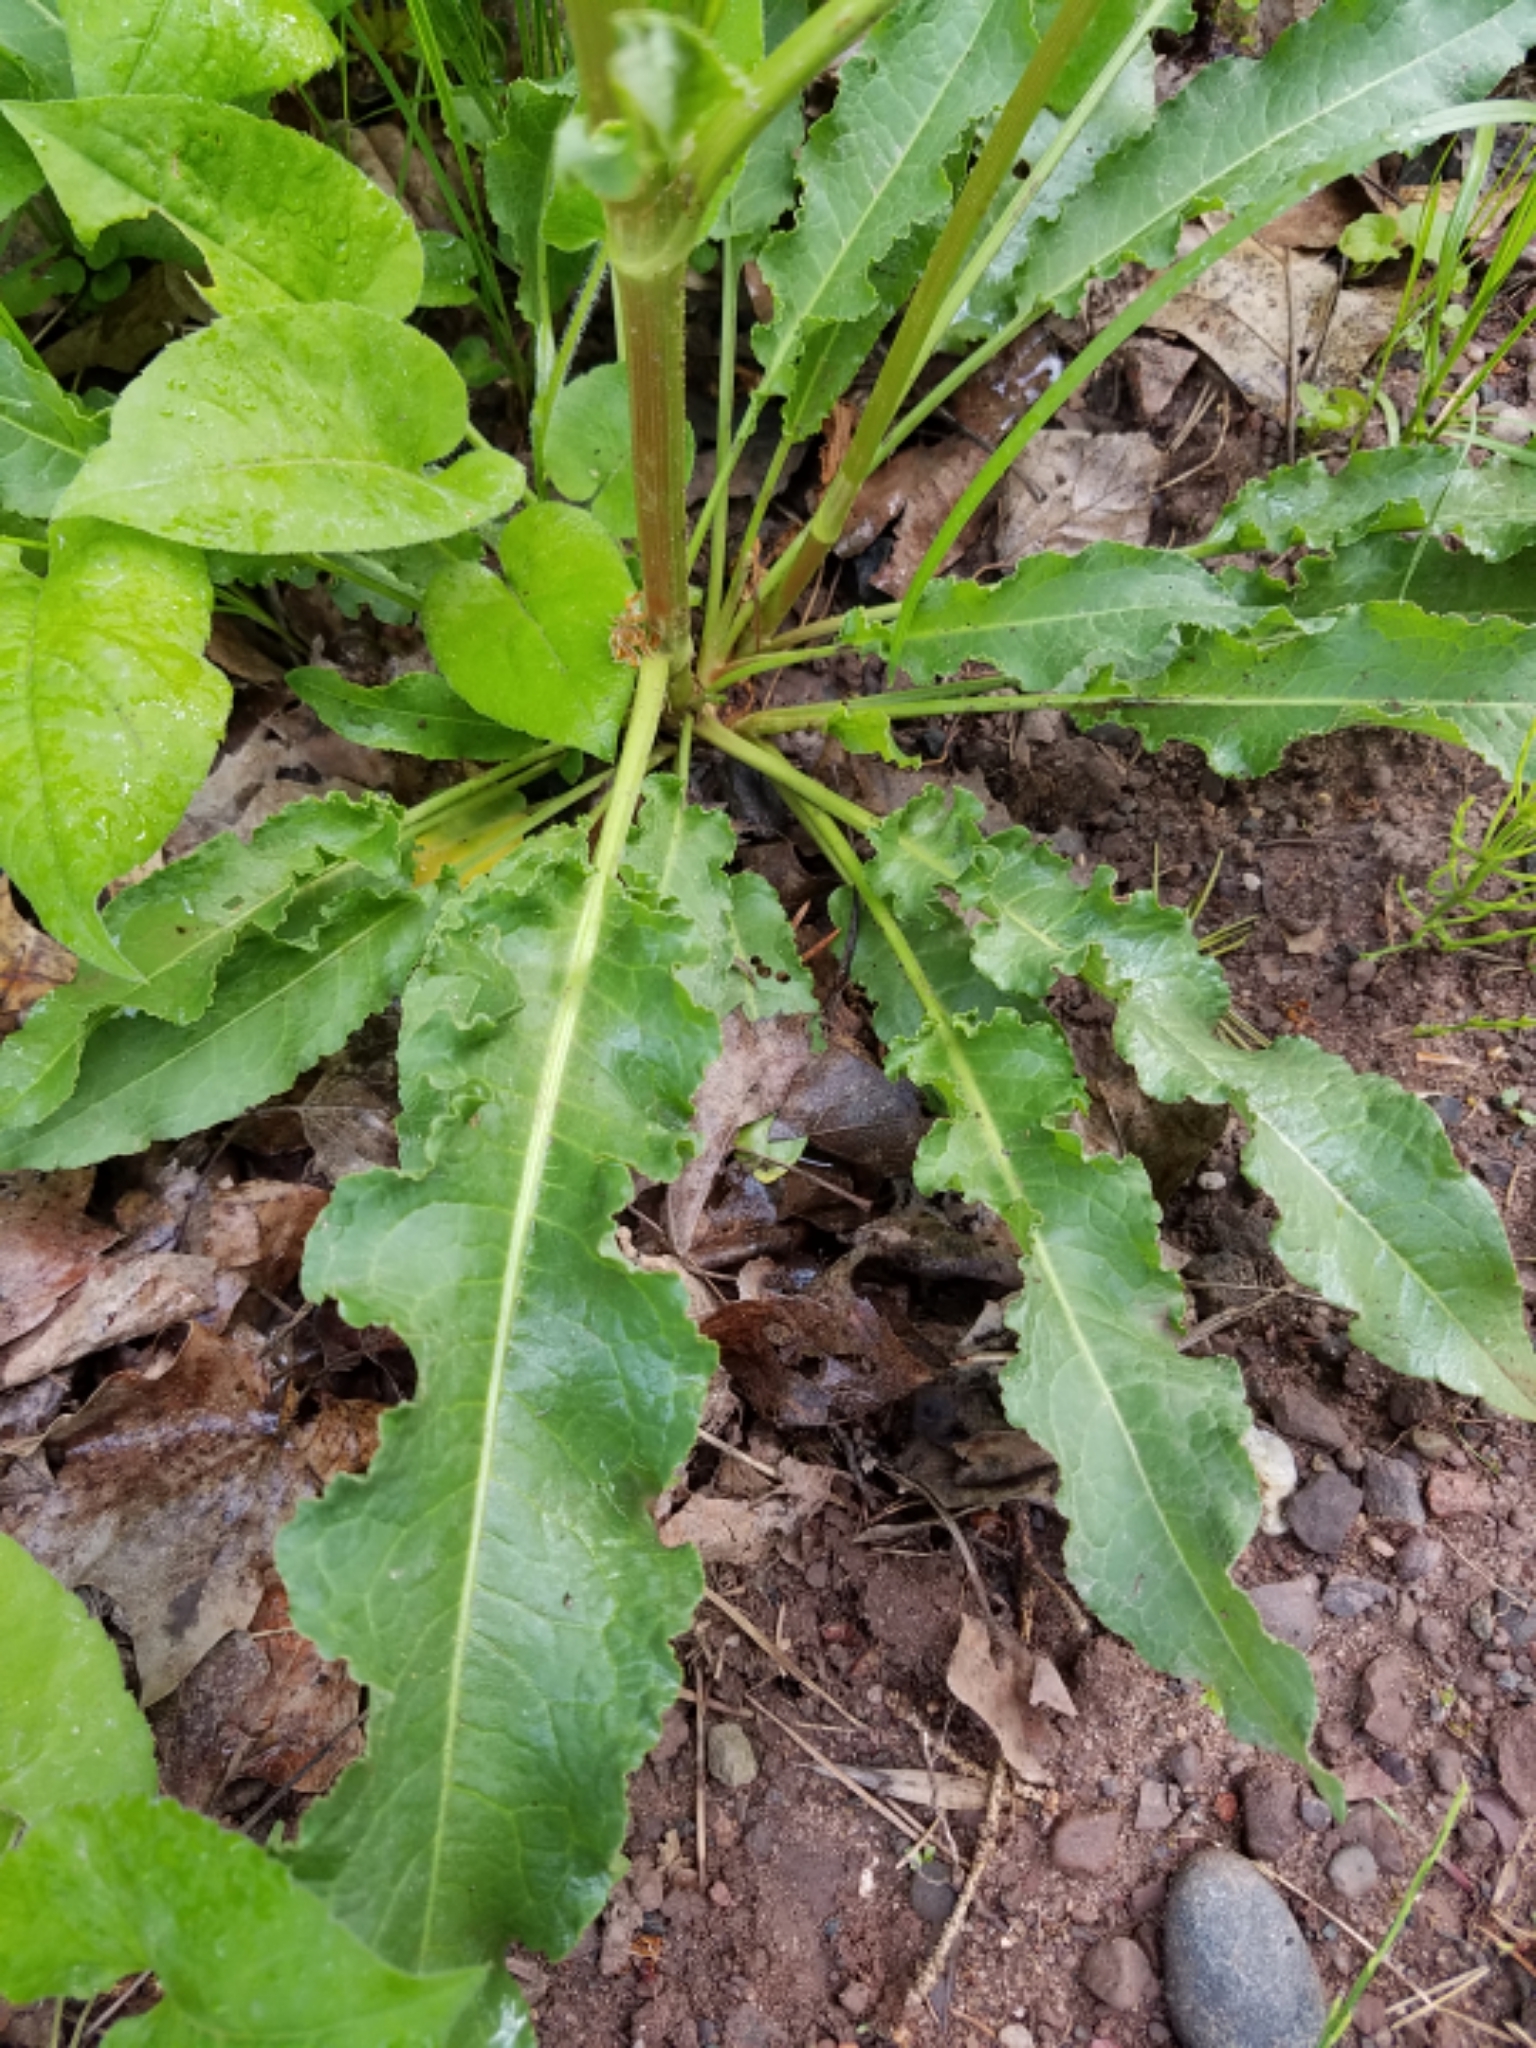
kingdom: Plantae
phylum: Tracheophyta
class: Magnoliopsida
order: Caryophyllales
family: Polygonaceae
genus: Rumex
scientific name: Rumex crispus
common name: Curled dock
